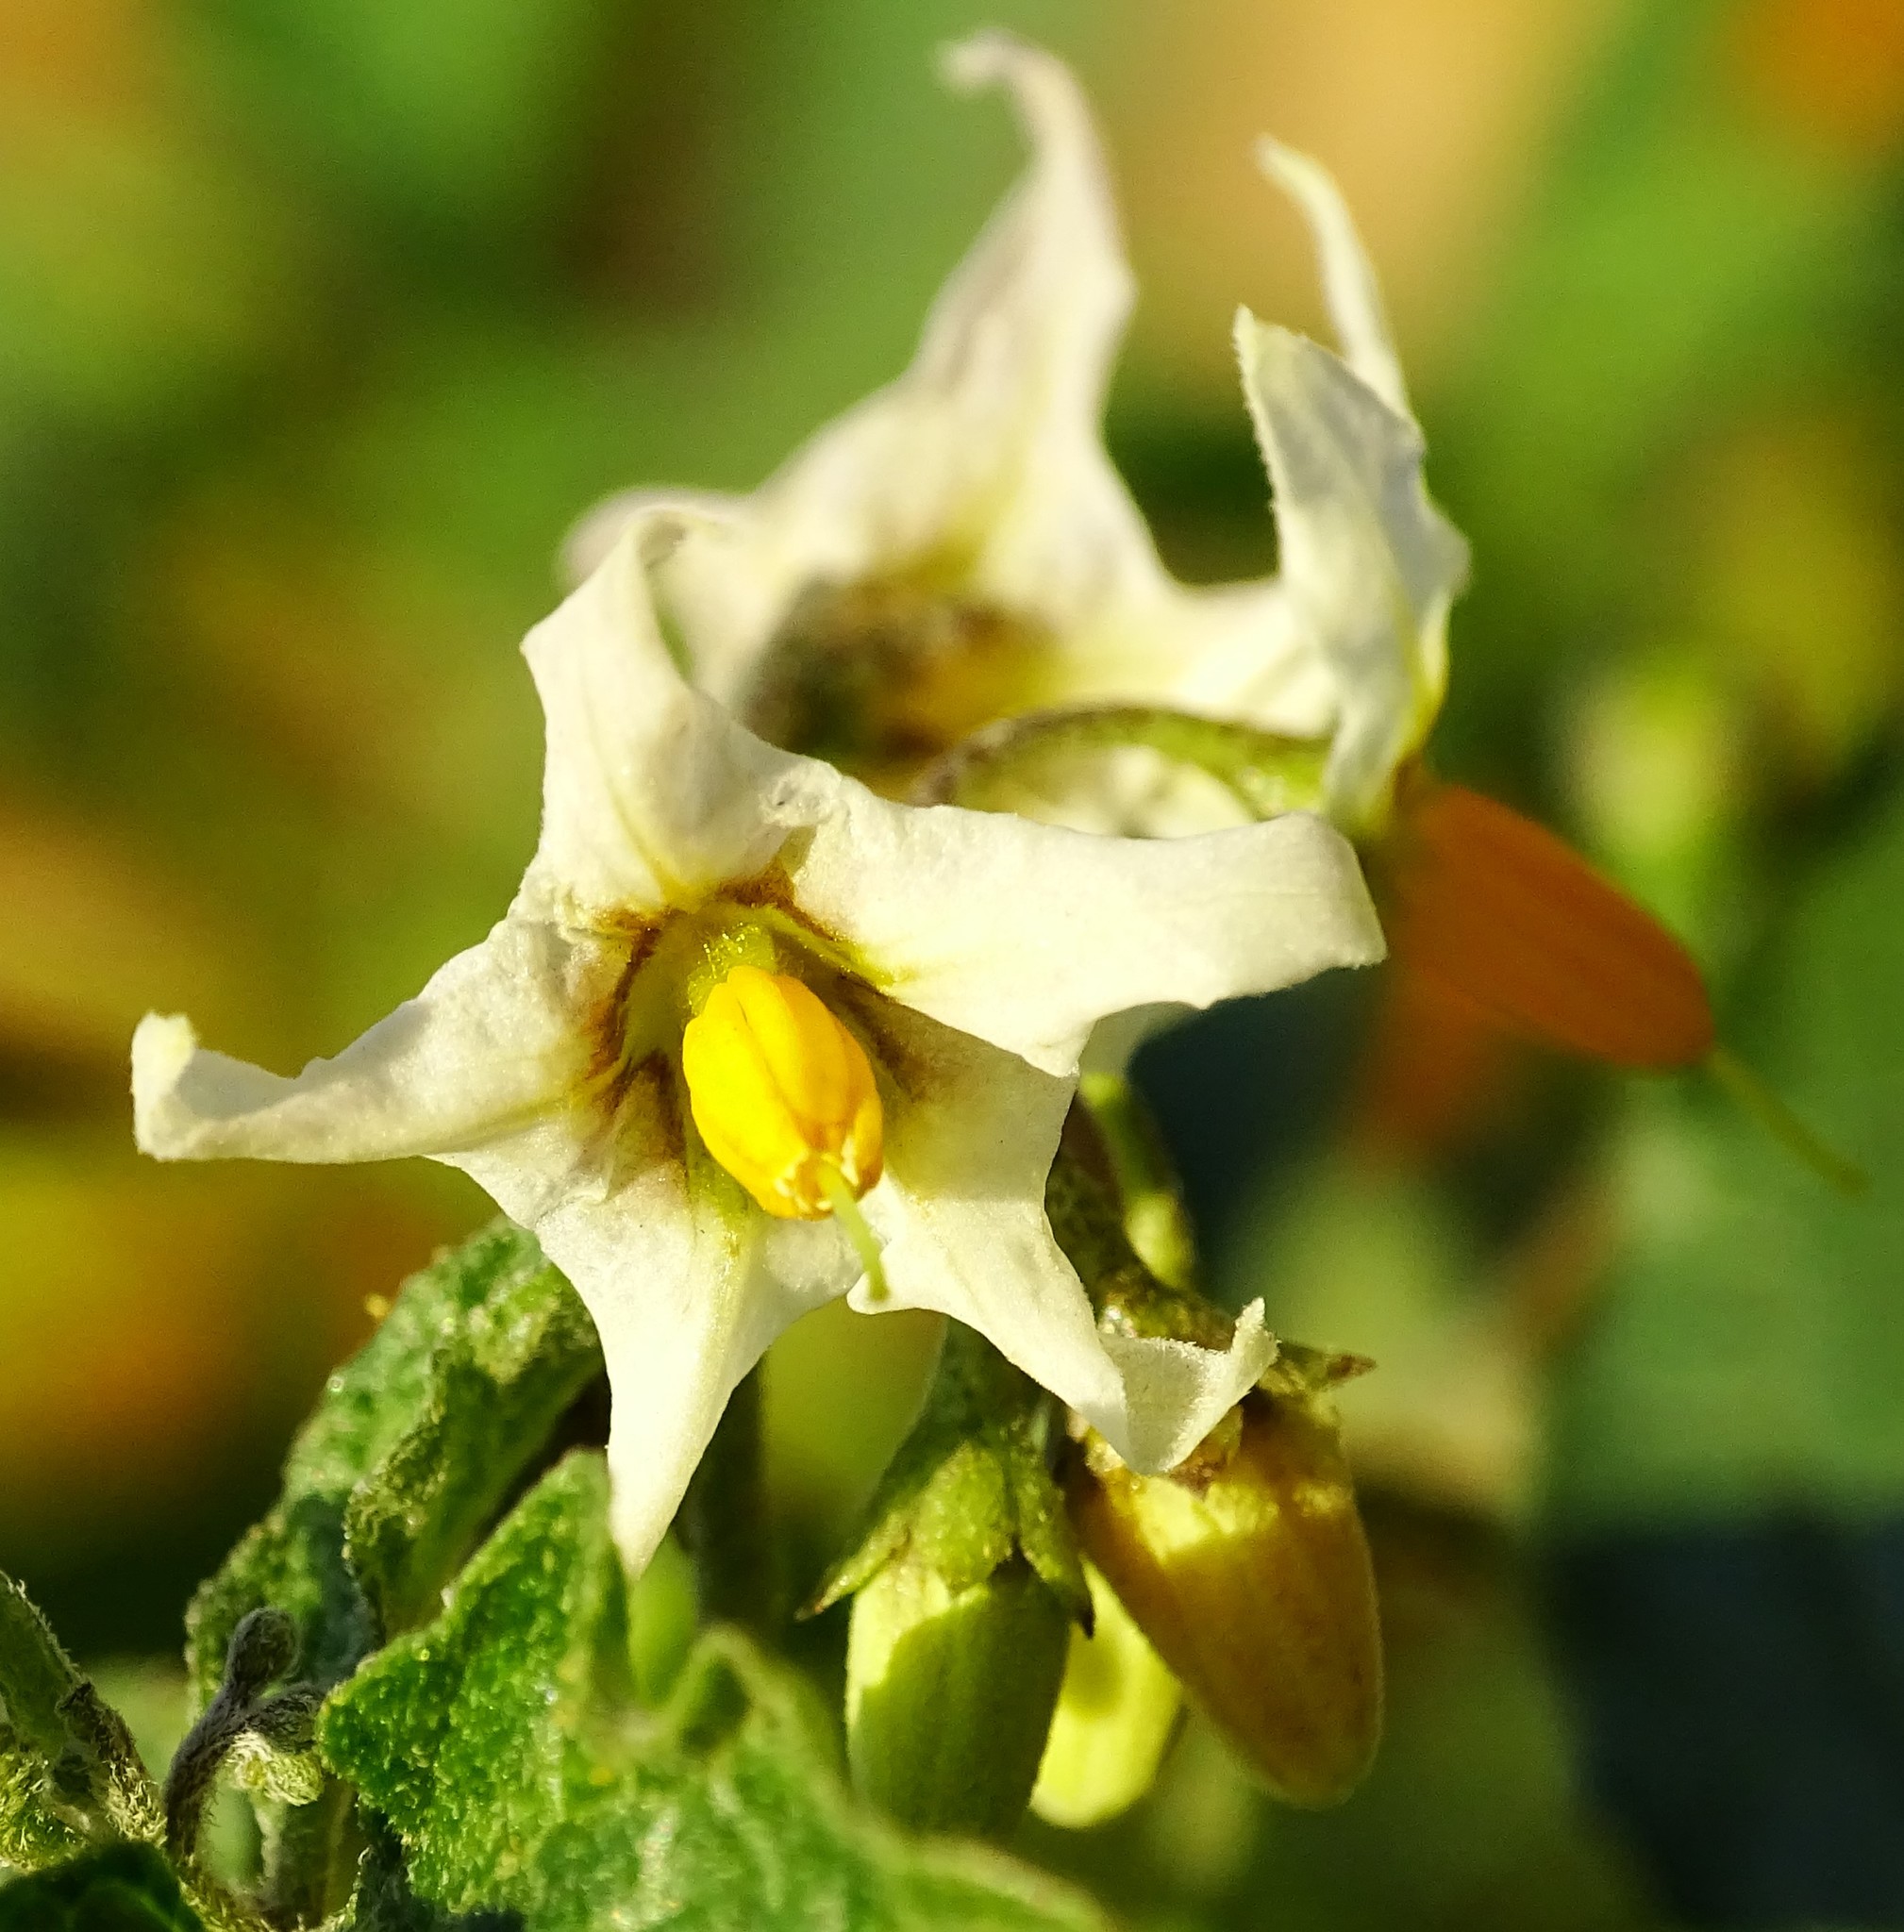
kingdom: Plantae
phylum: Tracheophyta
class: Magnoliopsida
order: Solanales
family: Solanaceae
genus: Solanum
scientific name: Solanum douglasii
